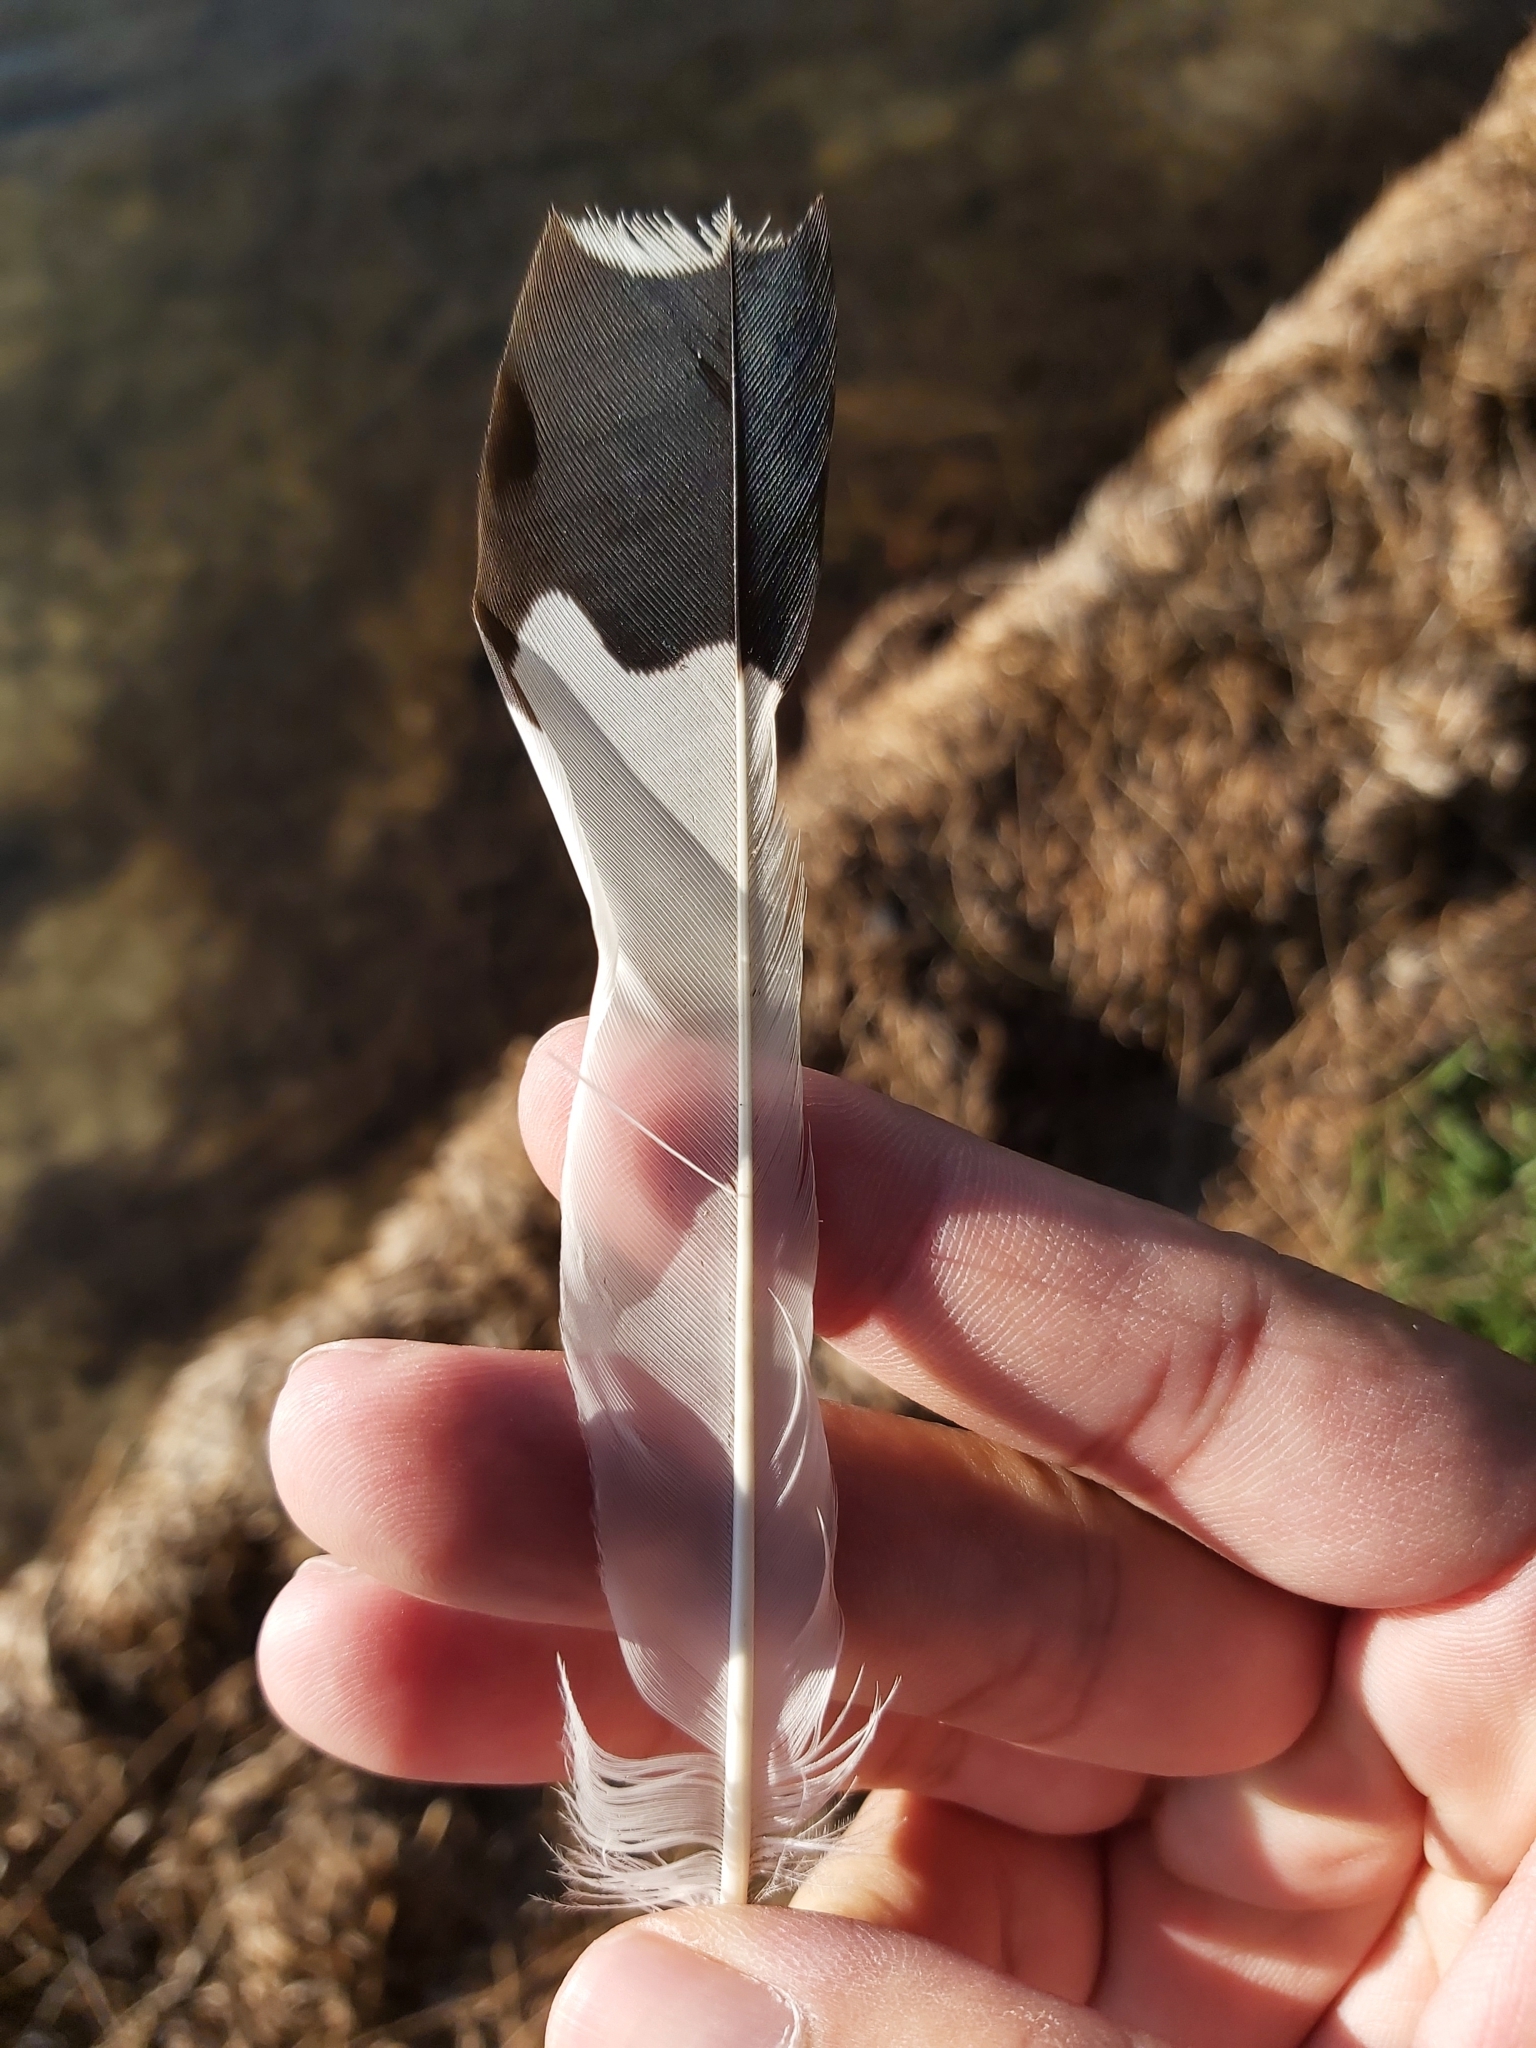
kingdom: Animalia
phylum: Chordata
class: Aves
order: Passeriformes
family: Monarchidae
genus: Grallina
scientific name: Grallina cyanoleuca
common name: Magpie-lark
